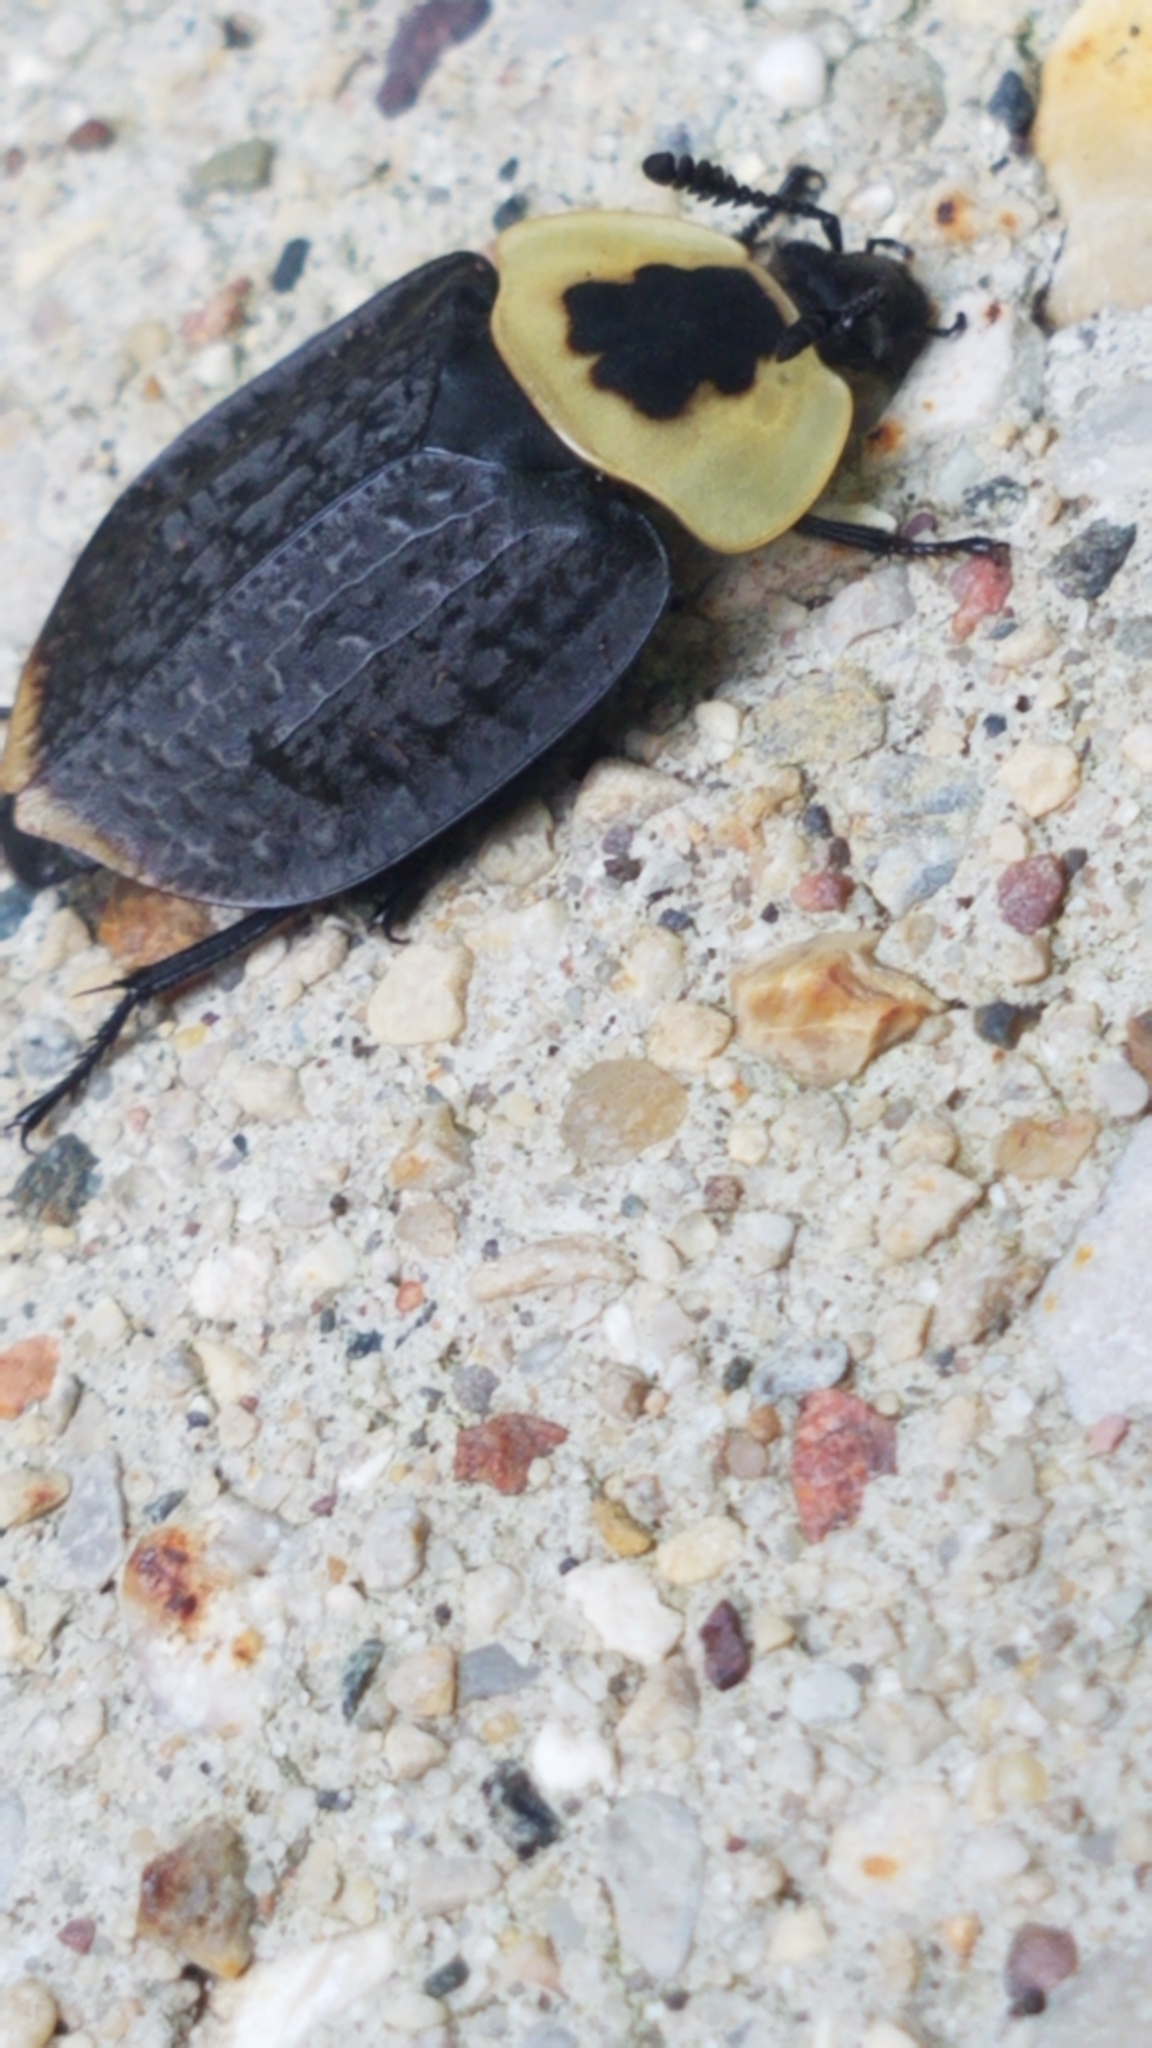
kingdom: Animalia
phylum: Arthropoda
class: Insecta
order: Coleoptera
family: Staphylinidae
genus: Necrophila
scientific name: Necrophila americana
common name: American carrion beetle
